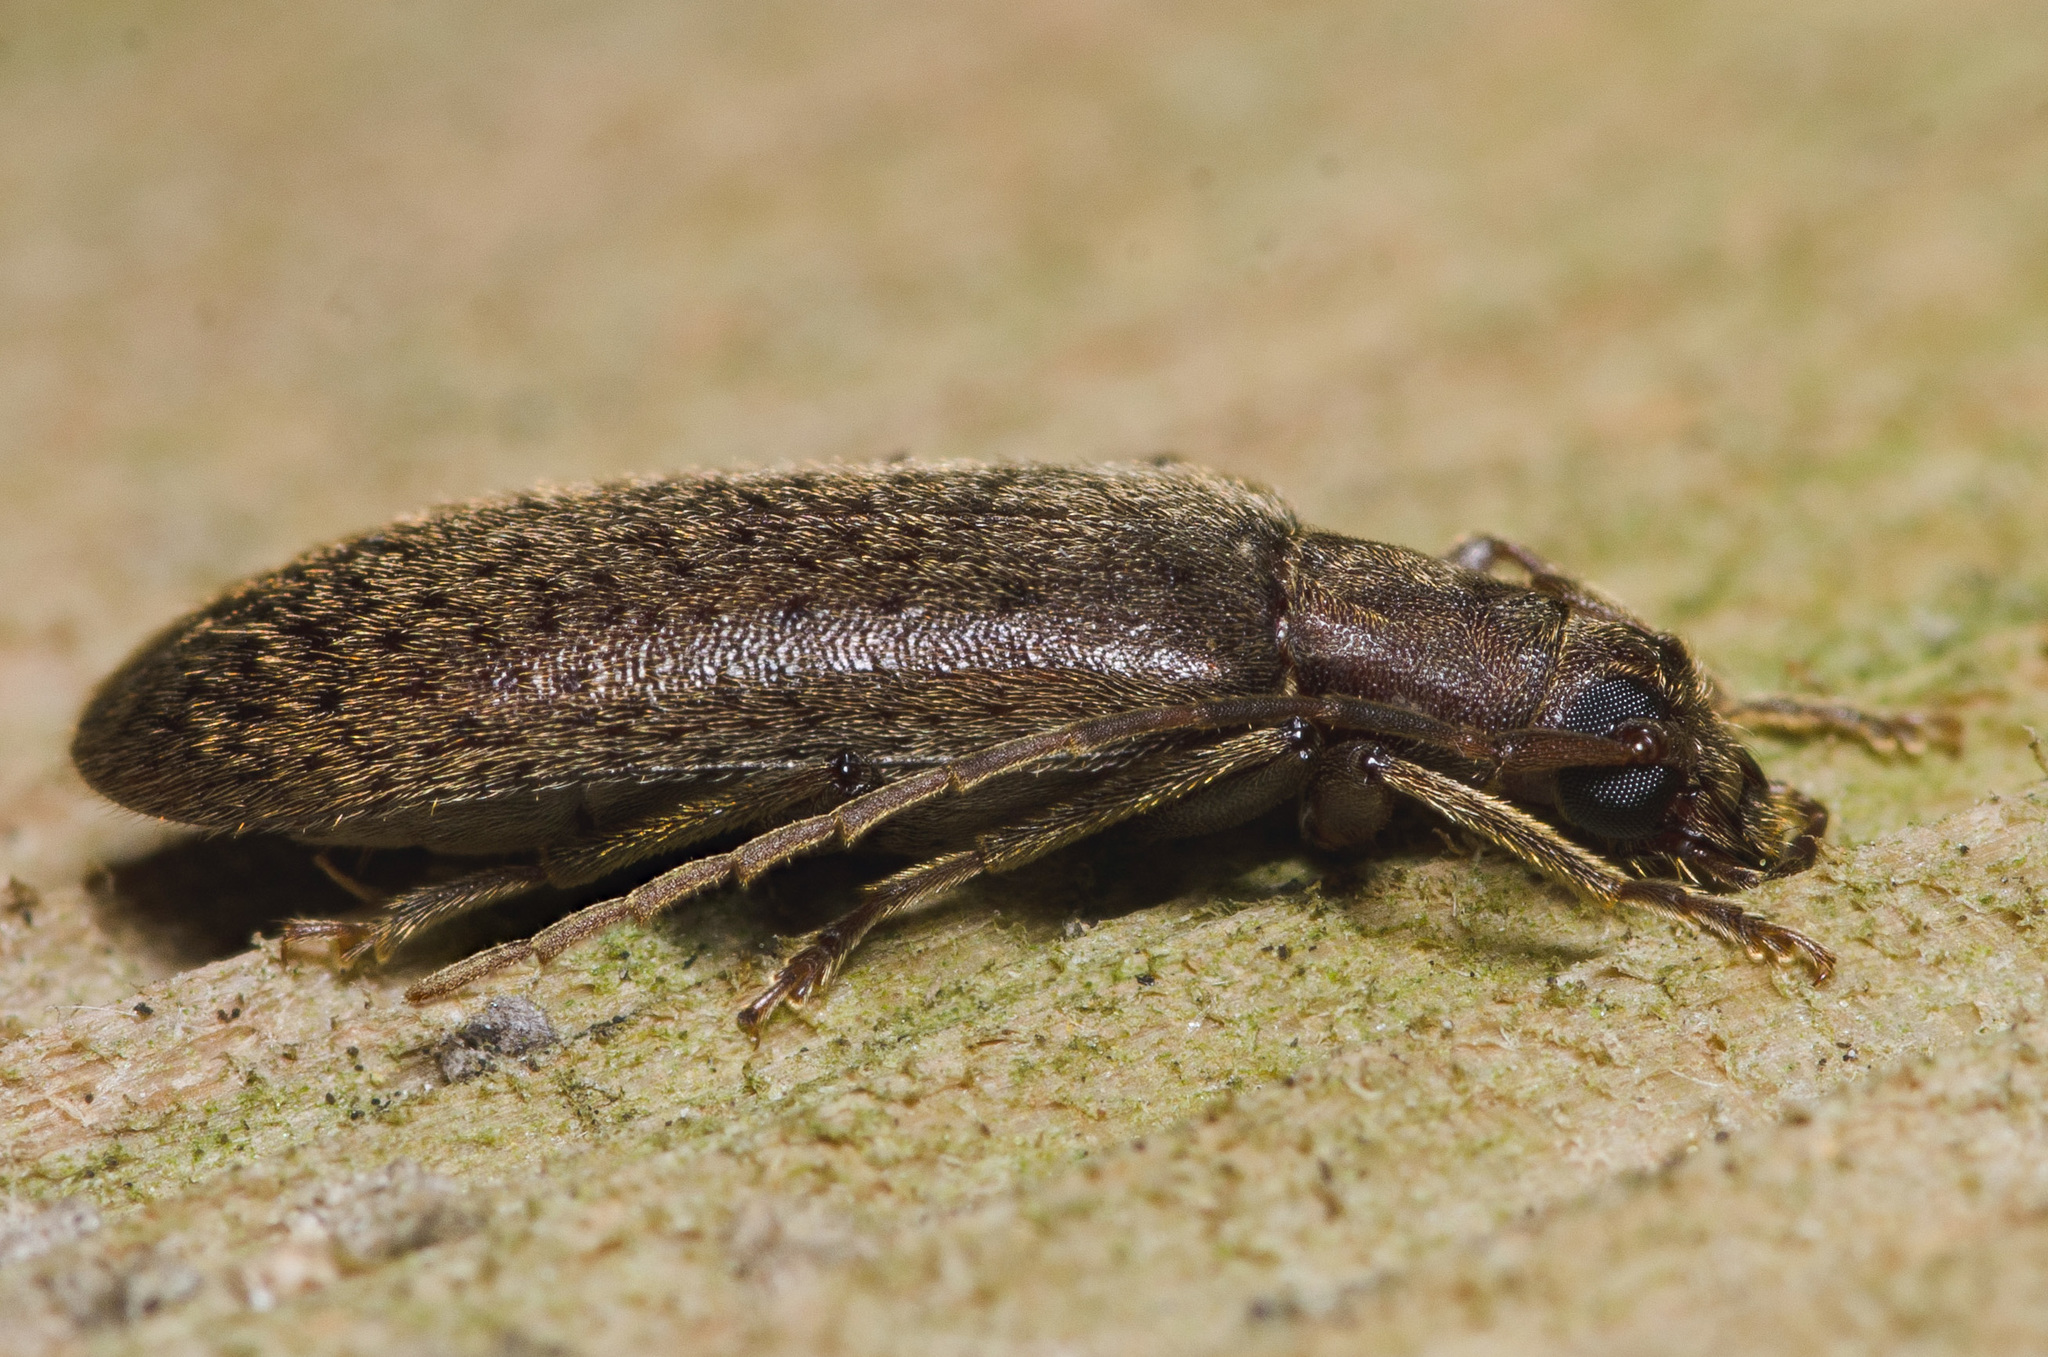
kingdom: Animalia
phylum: Arthropoda
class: Insecta
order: Coleoptera
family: Oedemeridae
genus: Sparedrus
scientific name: Sparedrus aspersus
